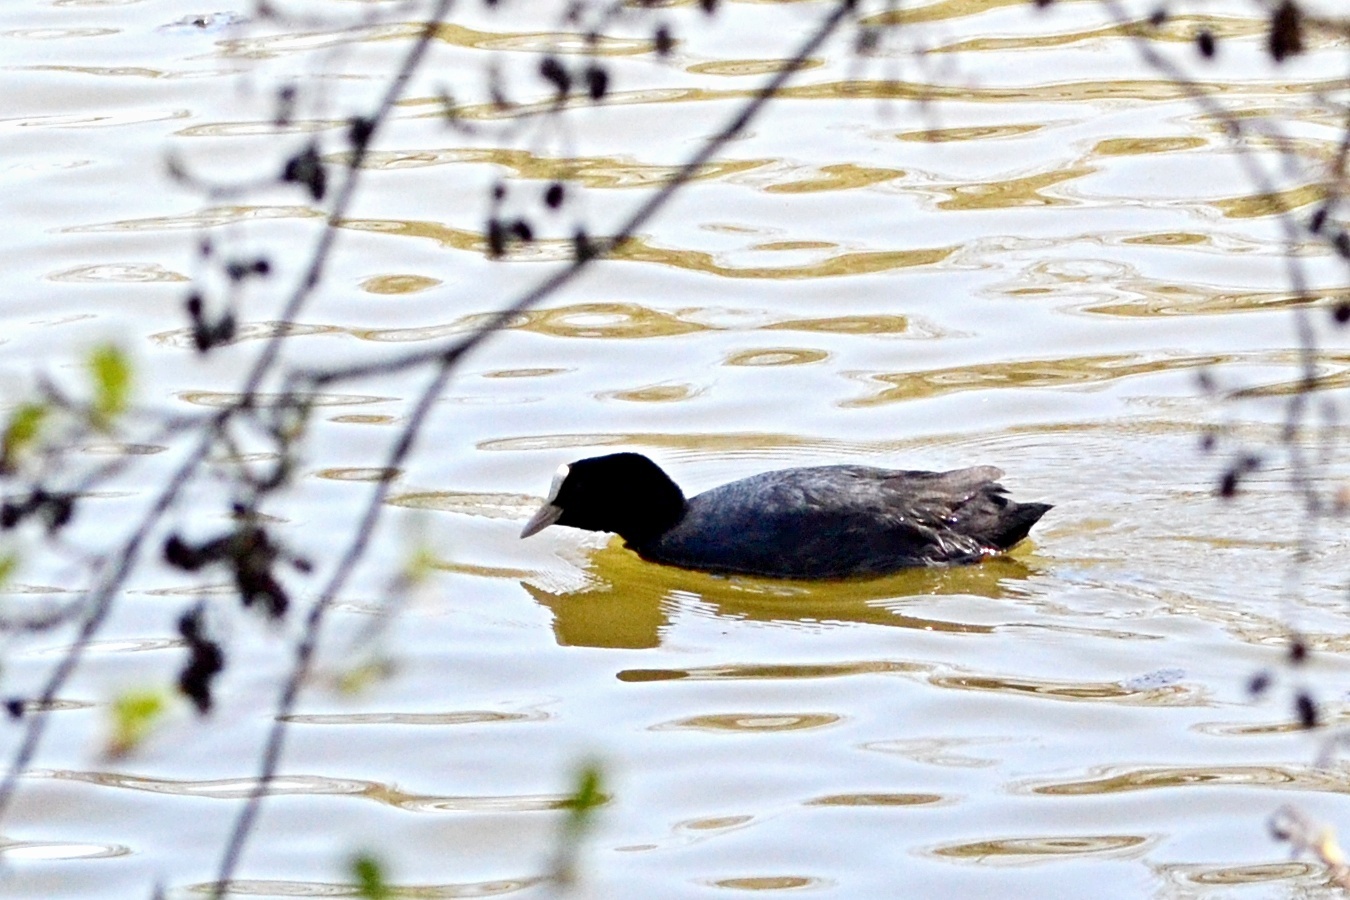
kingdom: Animalia
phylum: Chordata
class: Aves
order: Gruiformes
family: Rallidae
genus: Fulica
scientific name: Fulica atra
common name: Eurasian coot
